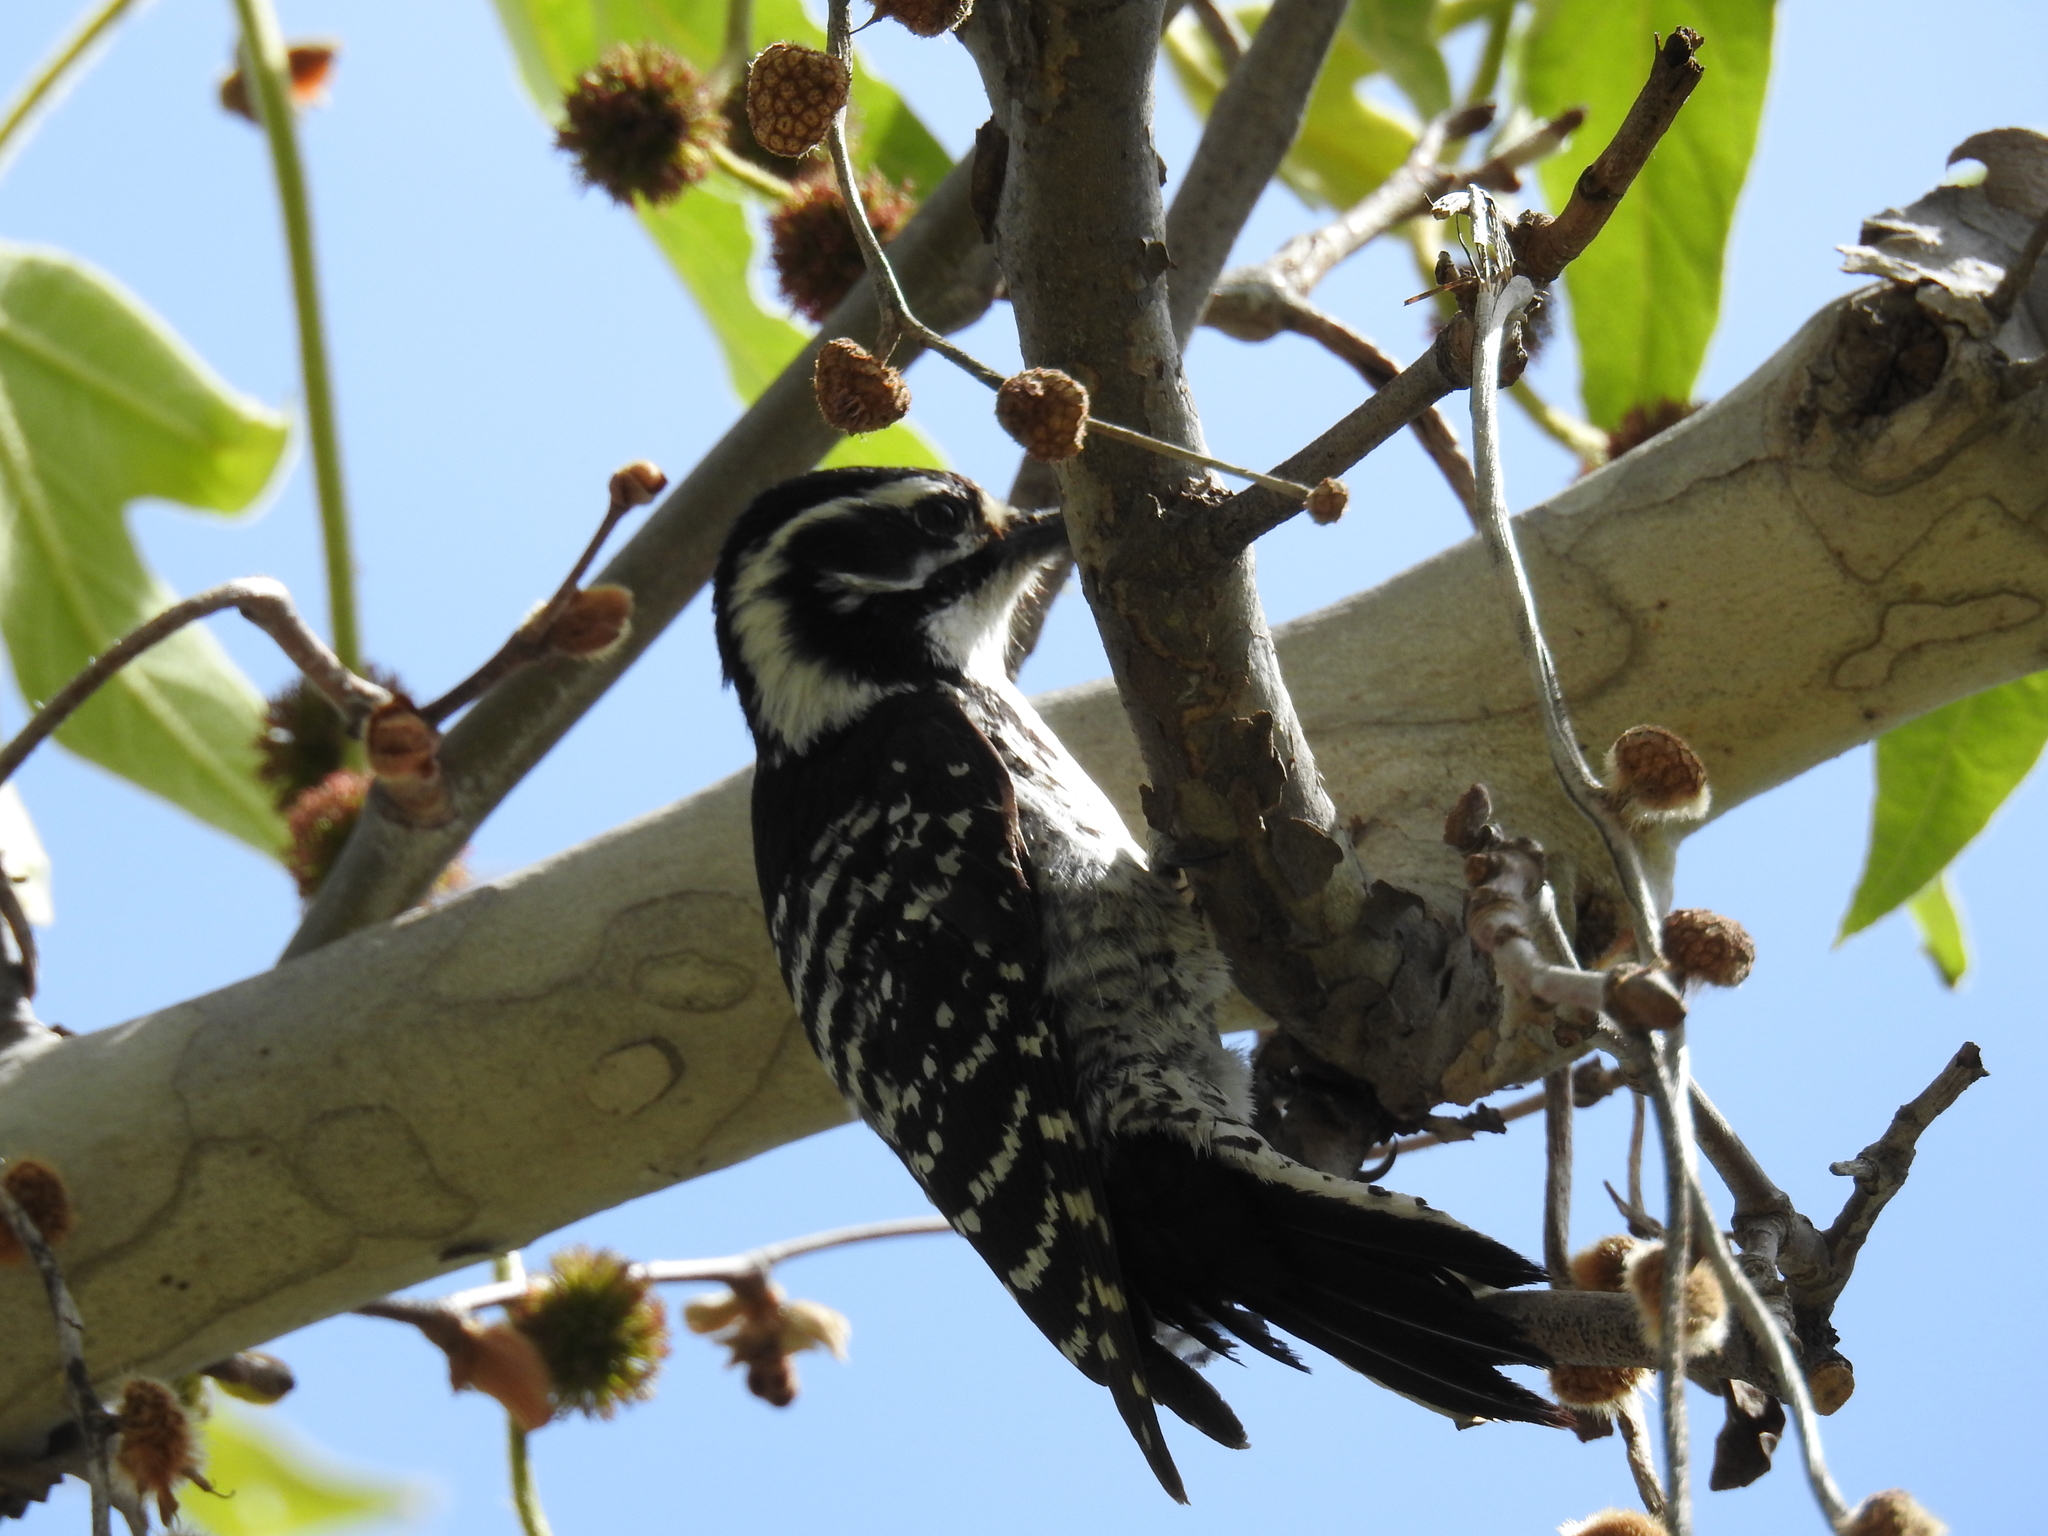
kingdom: Animalia
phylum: Chordata
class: Aves
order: Piciformes
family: Picidae
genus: Dryobates
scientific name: Dryobates nuttallii
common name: Nuttall's woodpecker
